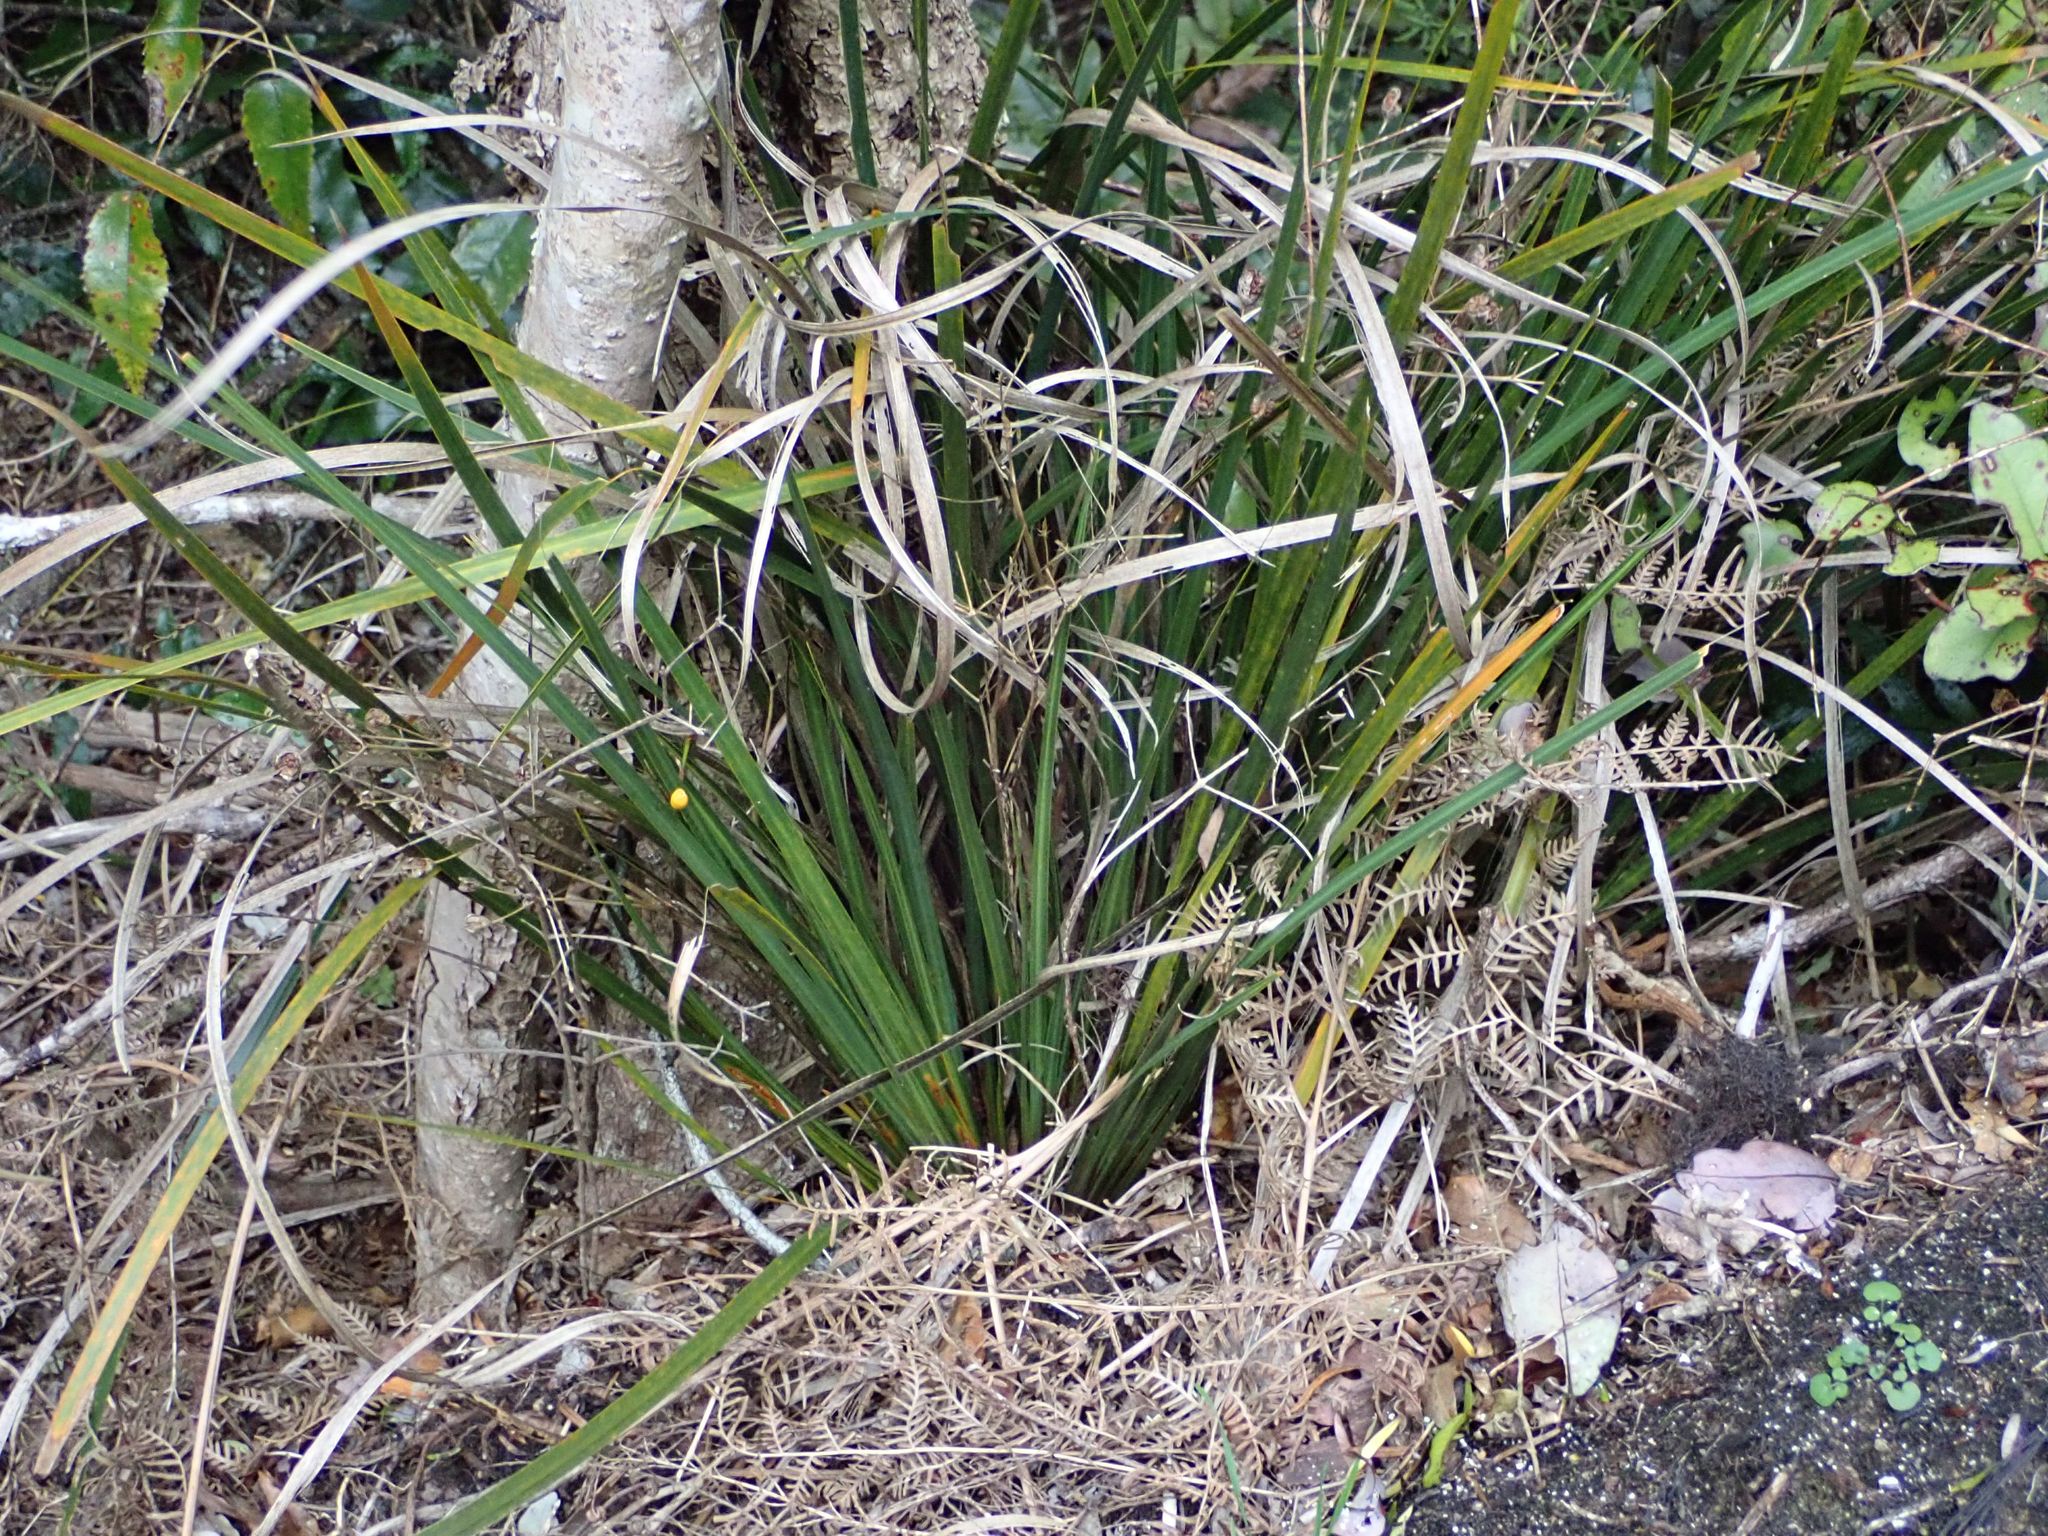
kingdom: Plantae
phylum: Tracheophyta
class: Liliopsida
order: Asparagales
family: Iridaceae
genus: Libertia
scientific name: Libertia ixioides
